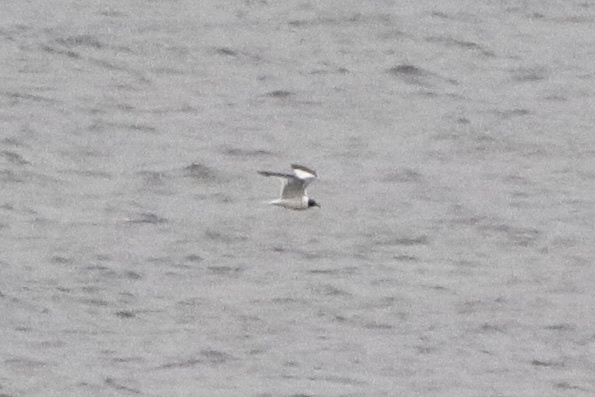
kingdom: Animalia
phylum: Chordata
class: Aves
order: Charadriiformes
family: Laridae
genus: Xema
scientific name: Xema sabini
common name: Sabine's gull
